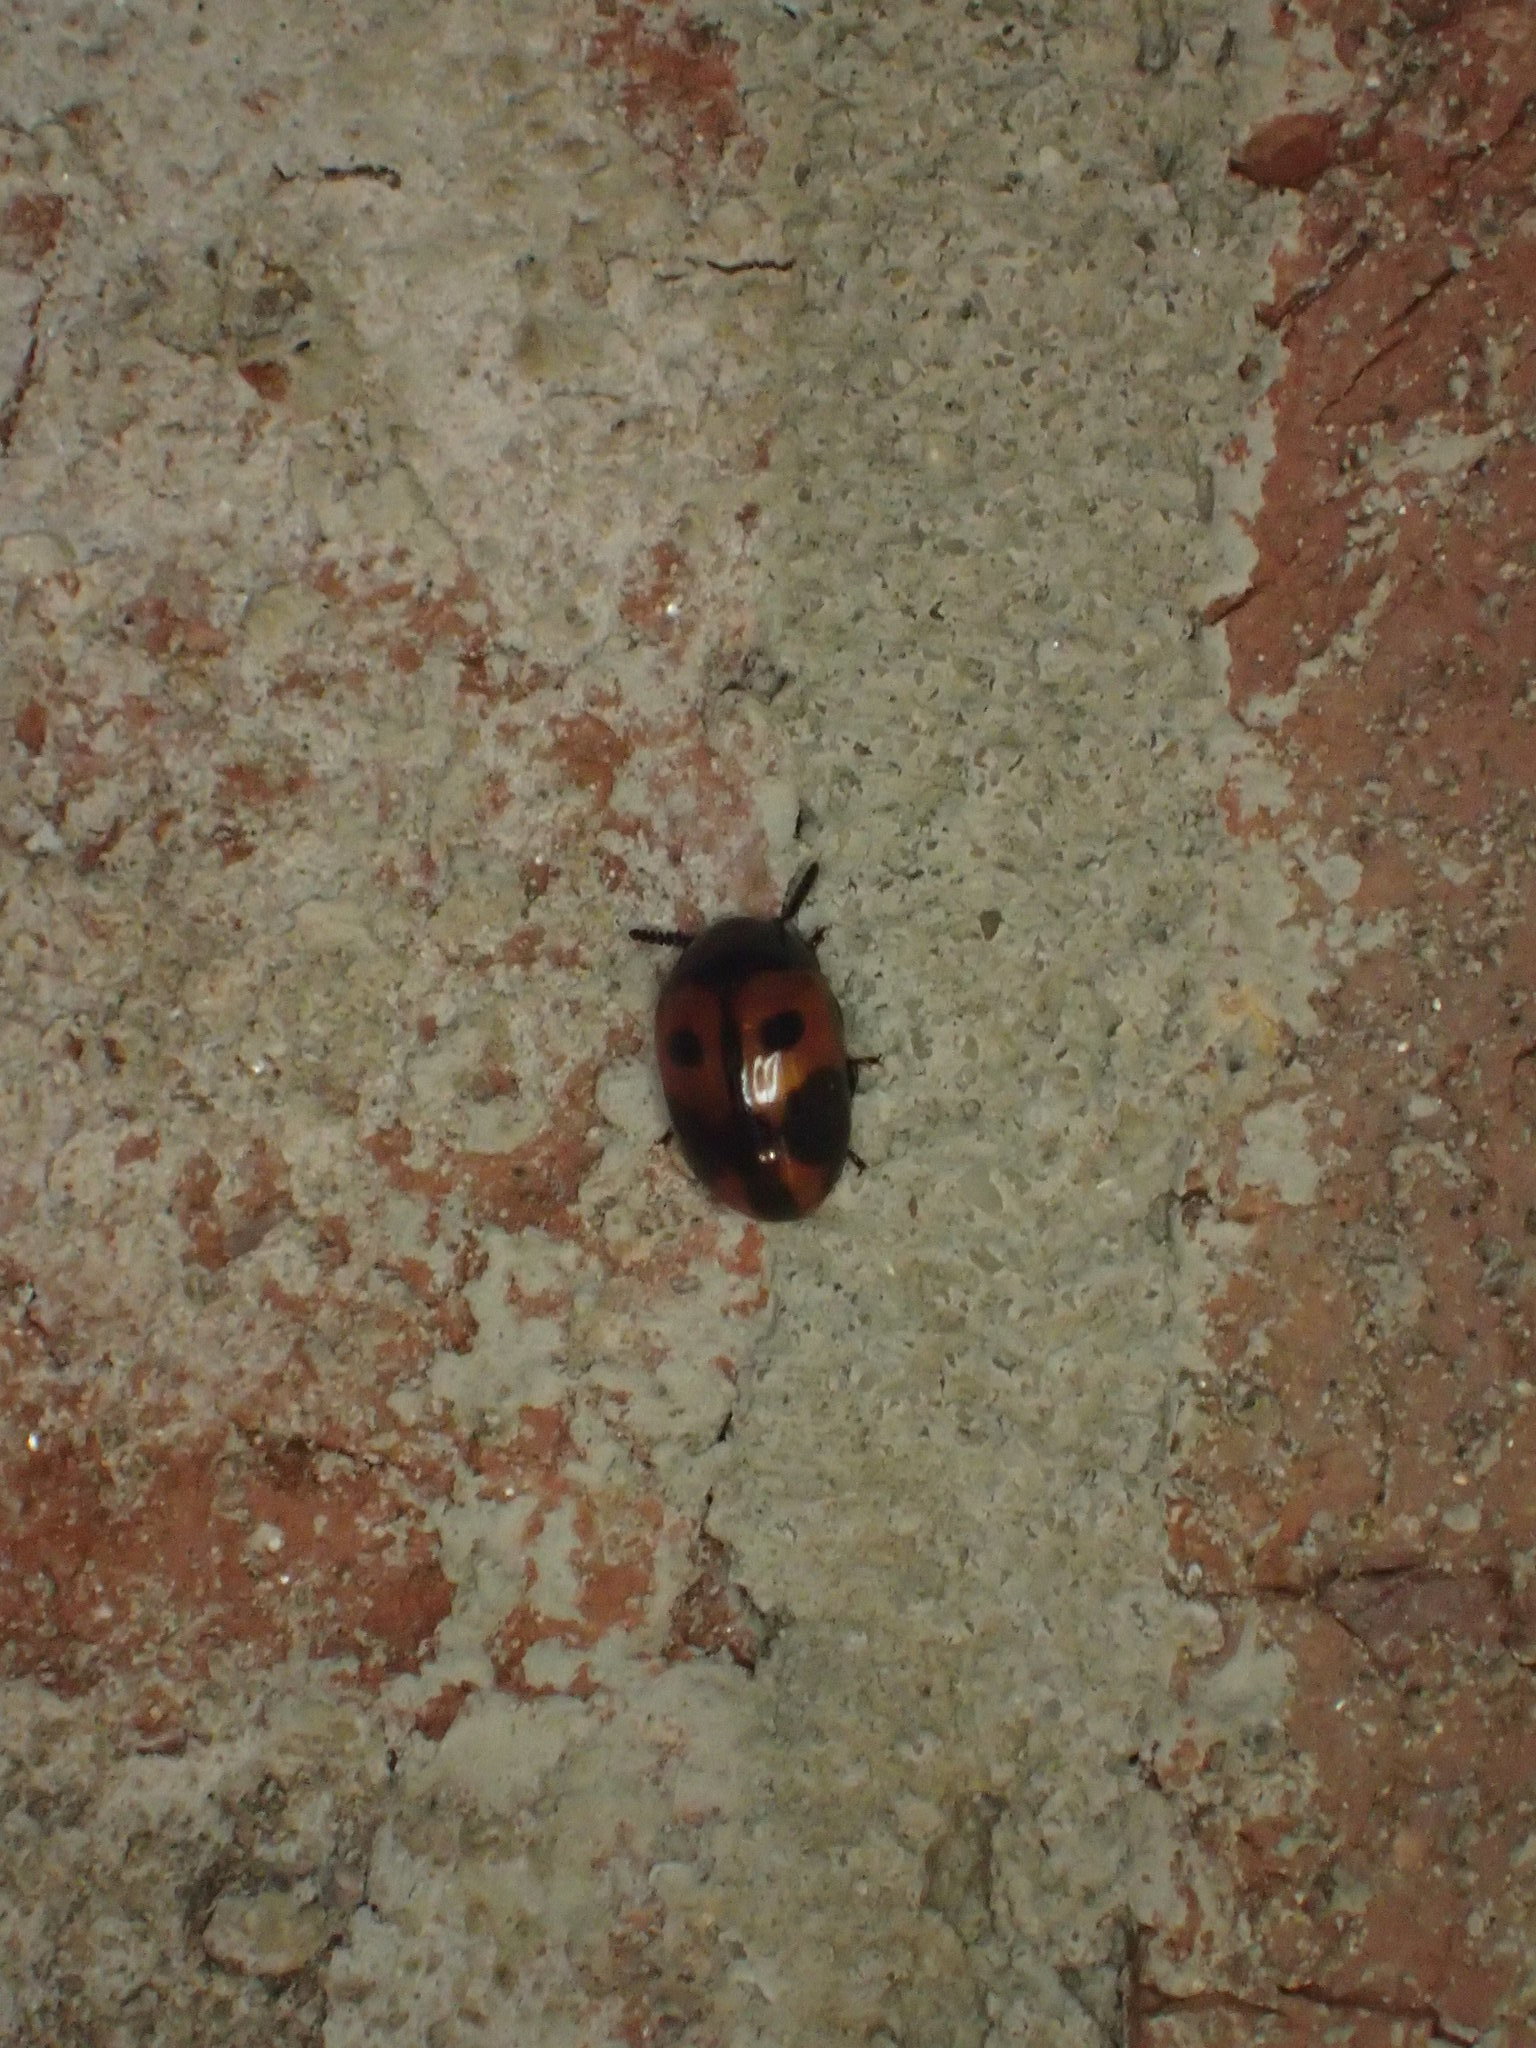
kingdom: Animalia
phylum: Arthropoda
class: Insecta
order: Coleoptera
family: Tenebrionidae
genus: Diaperis
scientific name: Diaperis maculata
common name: Darkling beetle
